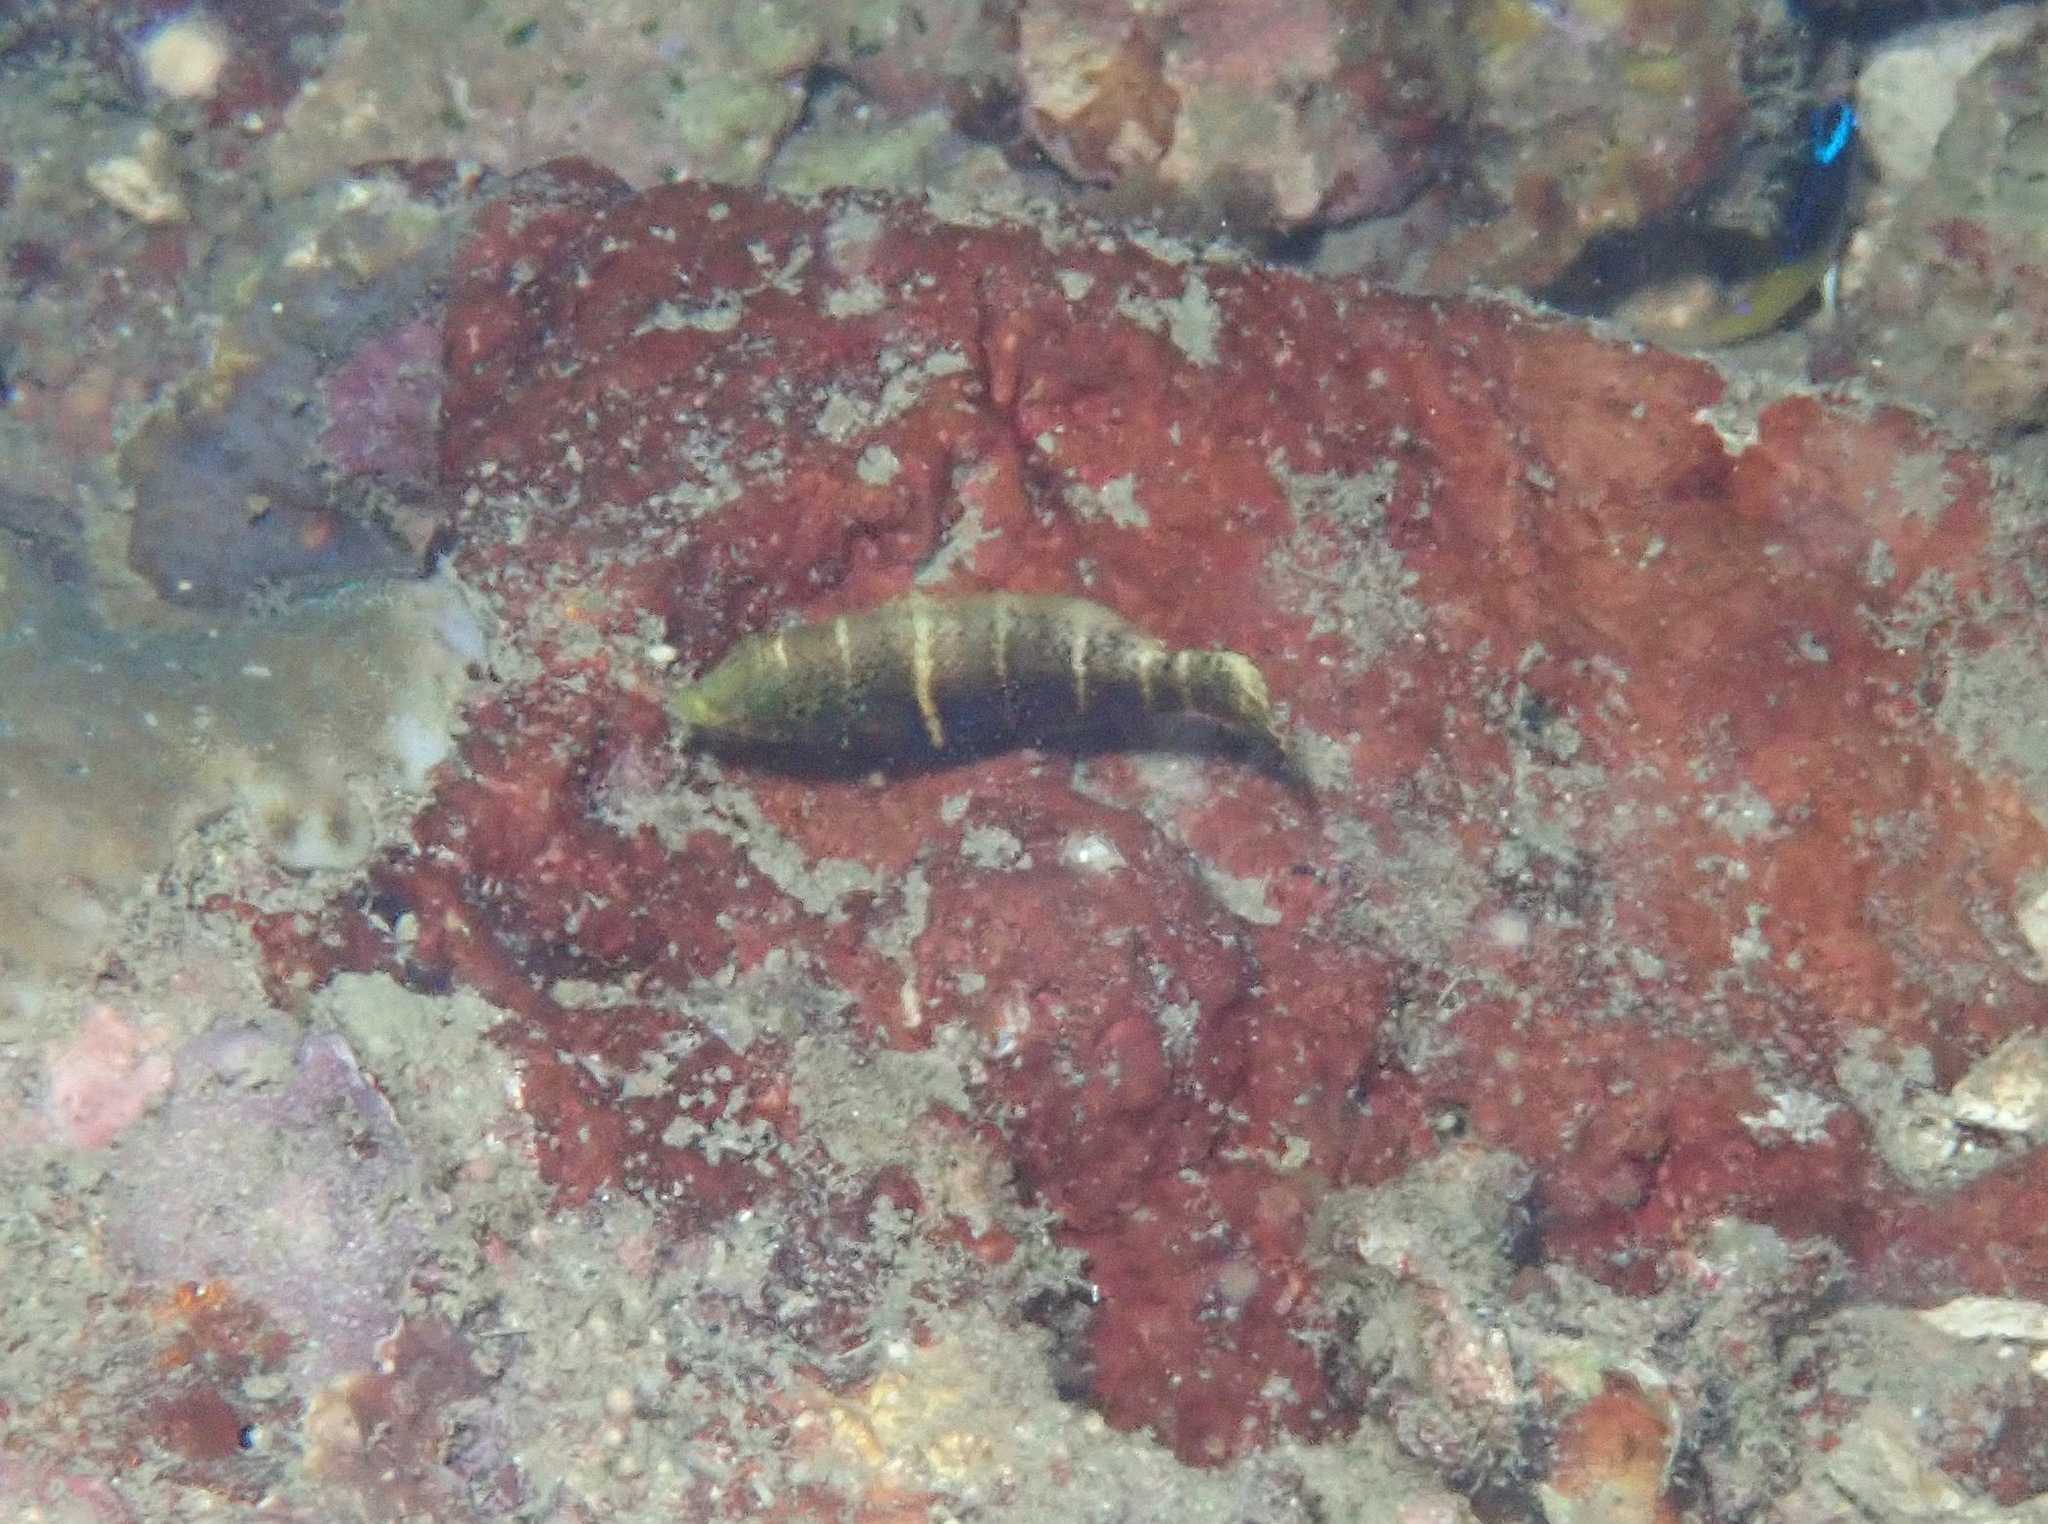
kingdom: Animalia
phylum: Chordata
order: Perciformes
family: Labridae
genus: Hemigymnus
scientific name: Hemigymnus fasciatus
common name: Barred thicklip
